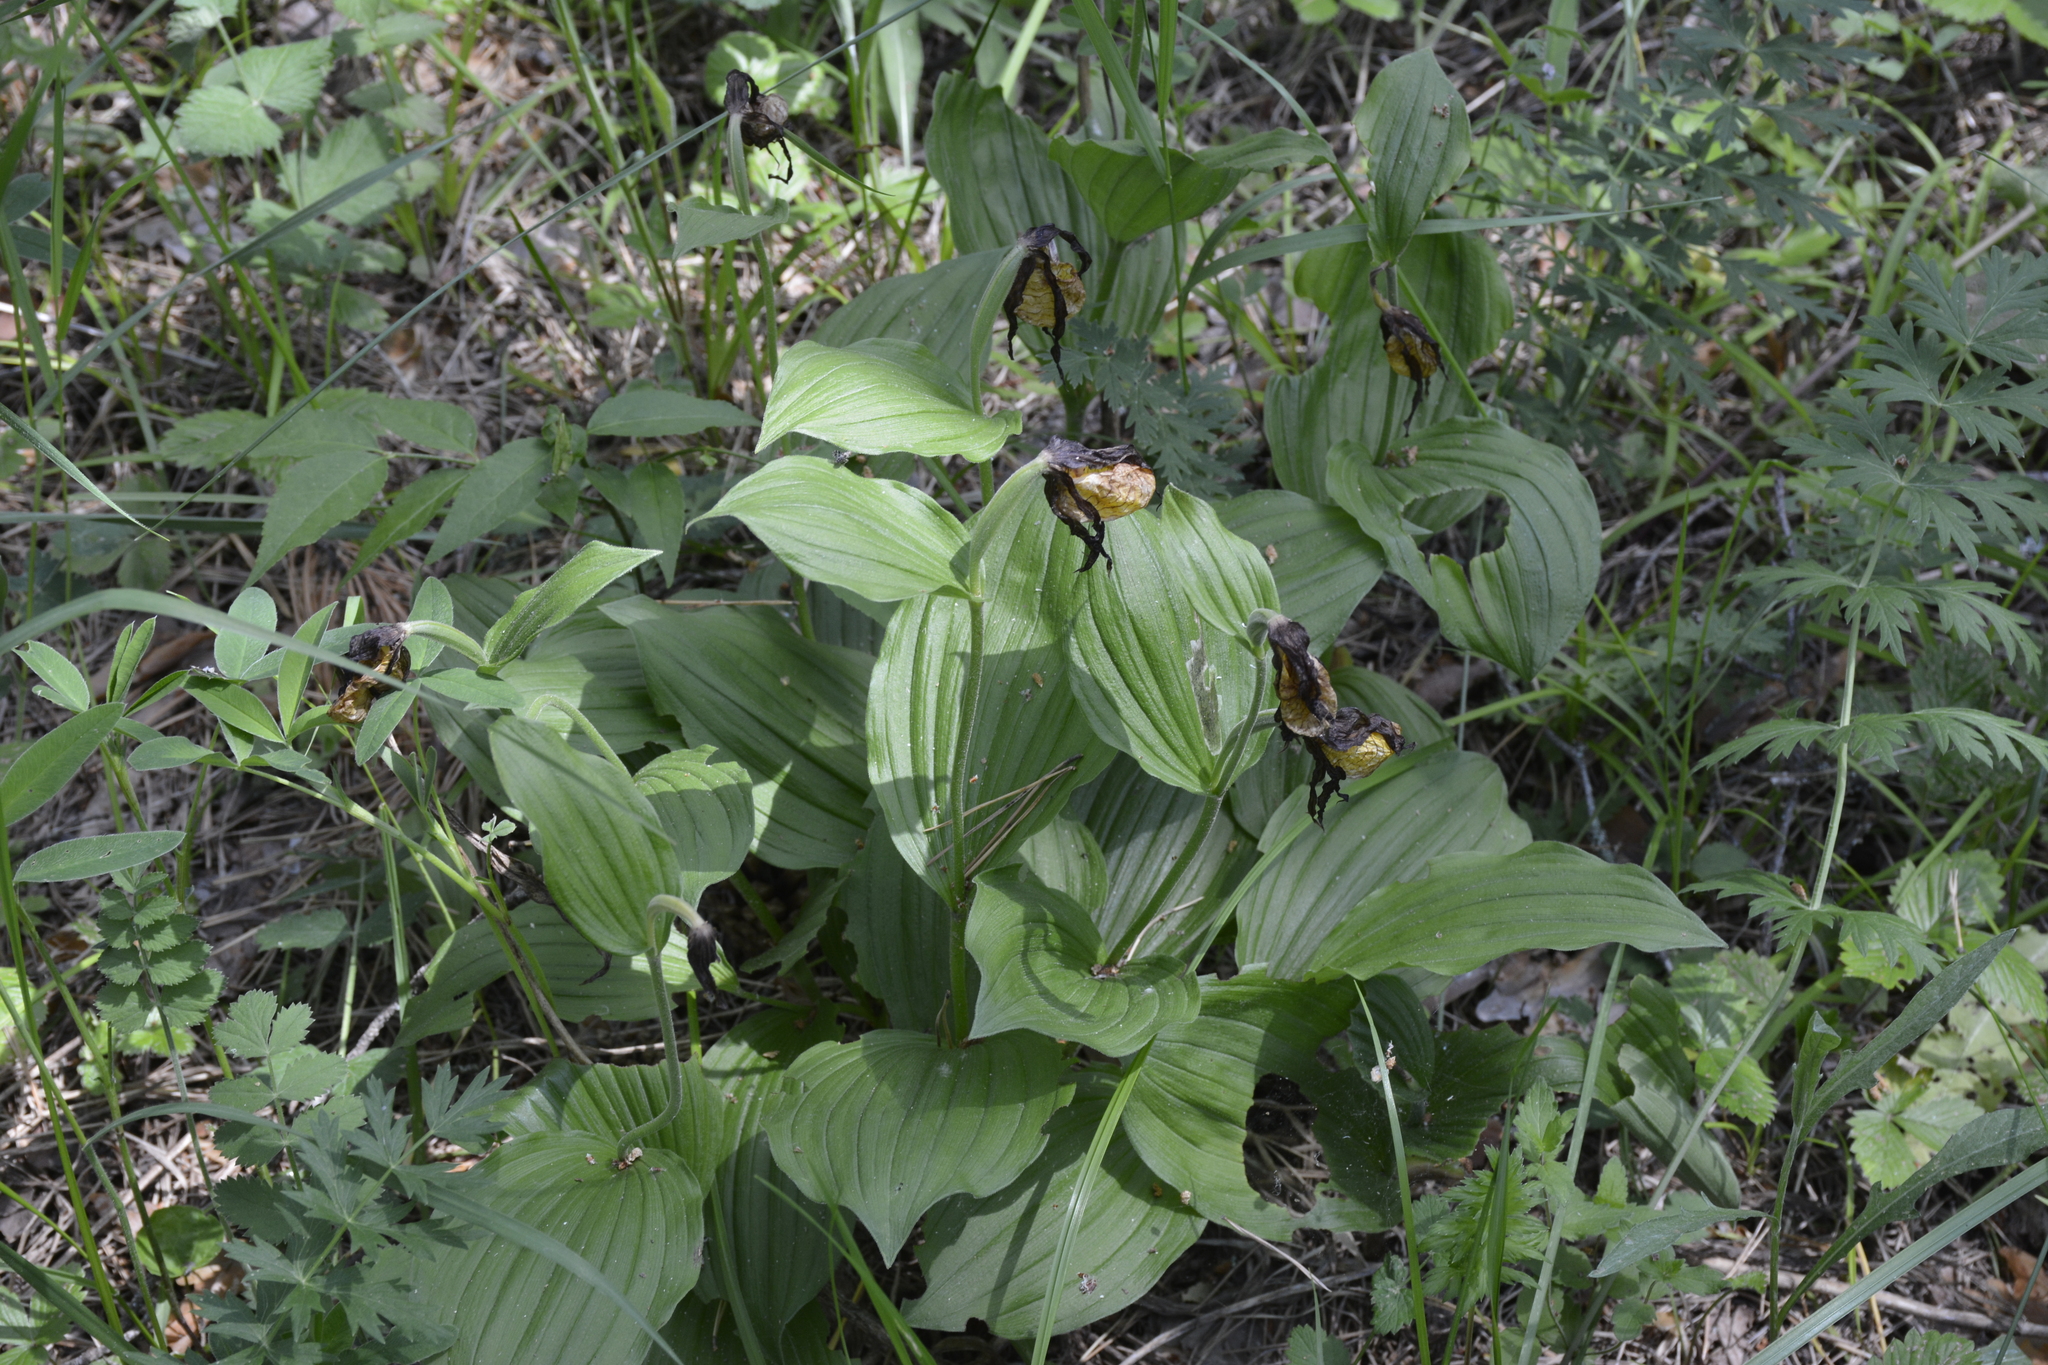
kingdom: Plantae
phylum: Tracheophyta
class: Liliopsida
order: Asparagales
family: Orchidaceae
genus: Cypripedium
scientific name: Cypripedium calceolus
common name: Lady's-slipper
